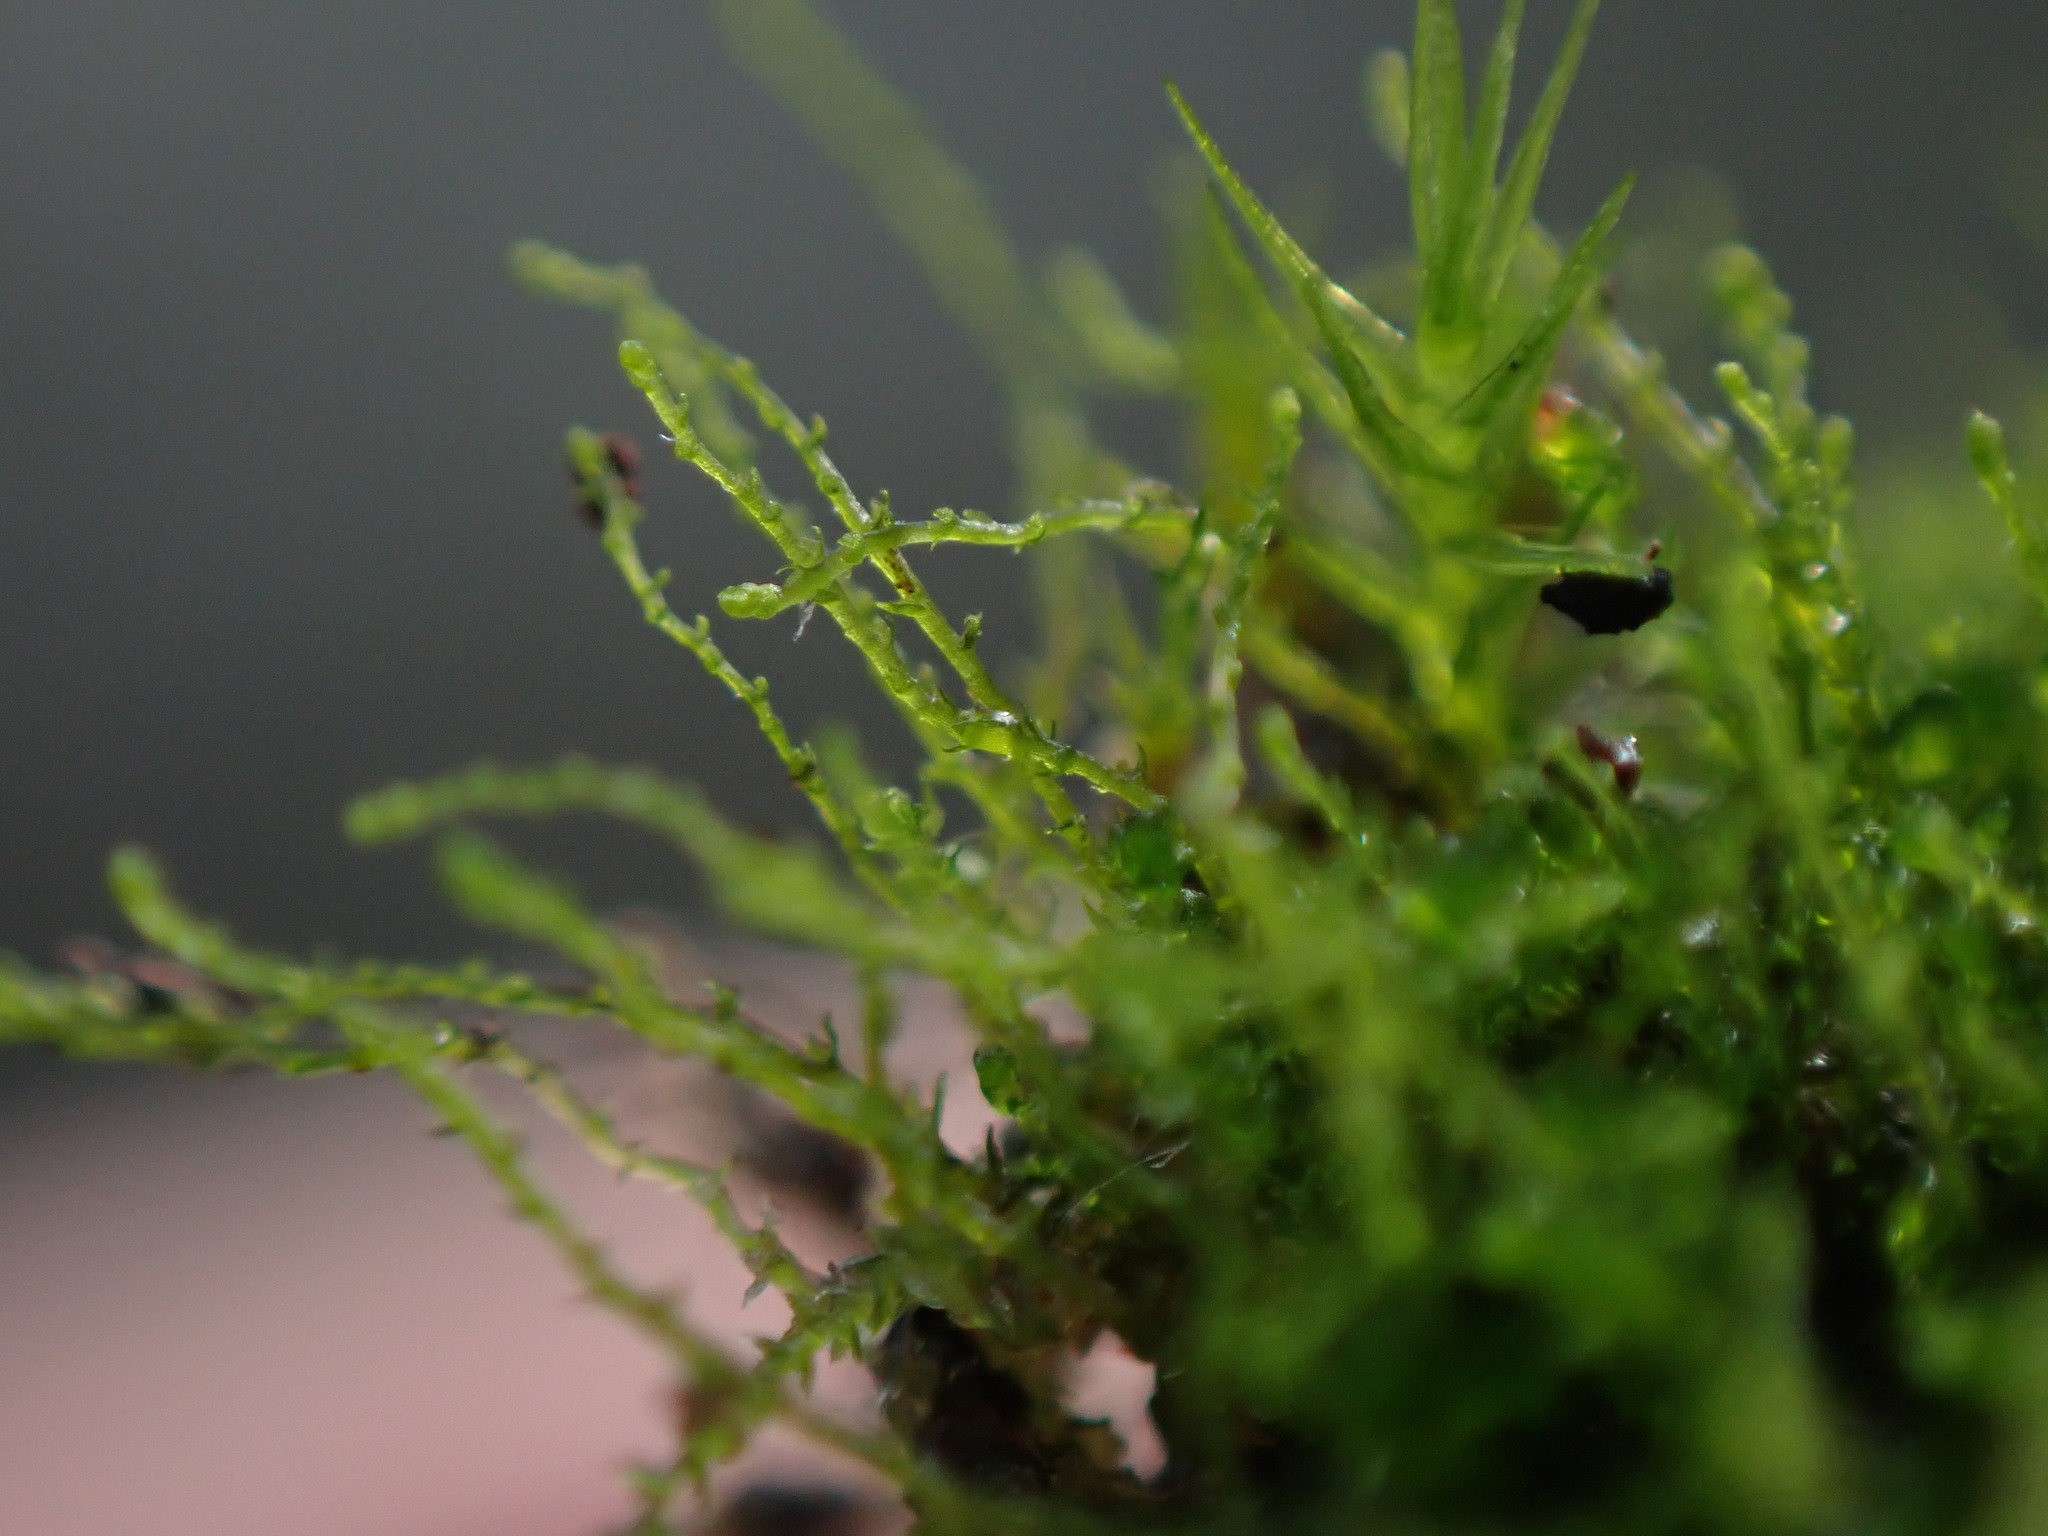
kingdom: Plantae
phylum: Marchantiophyta
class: Jungermanniopsida
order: Jungermanniales
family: Cephaloziellaceae
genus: Cephaloziella
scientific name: Cephaloziella divaricata
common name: Spreading threadwort
